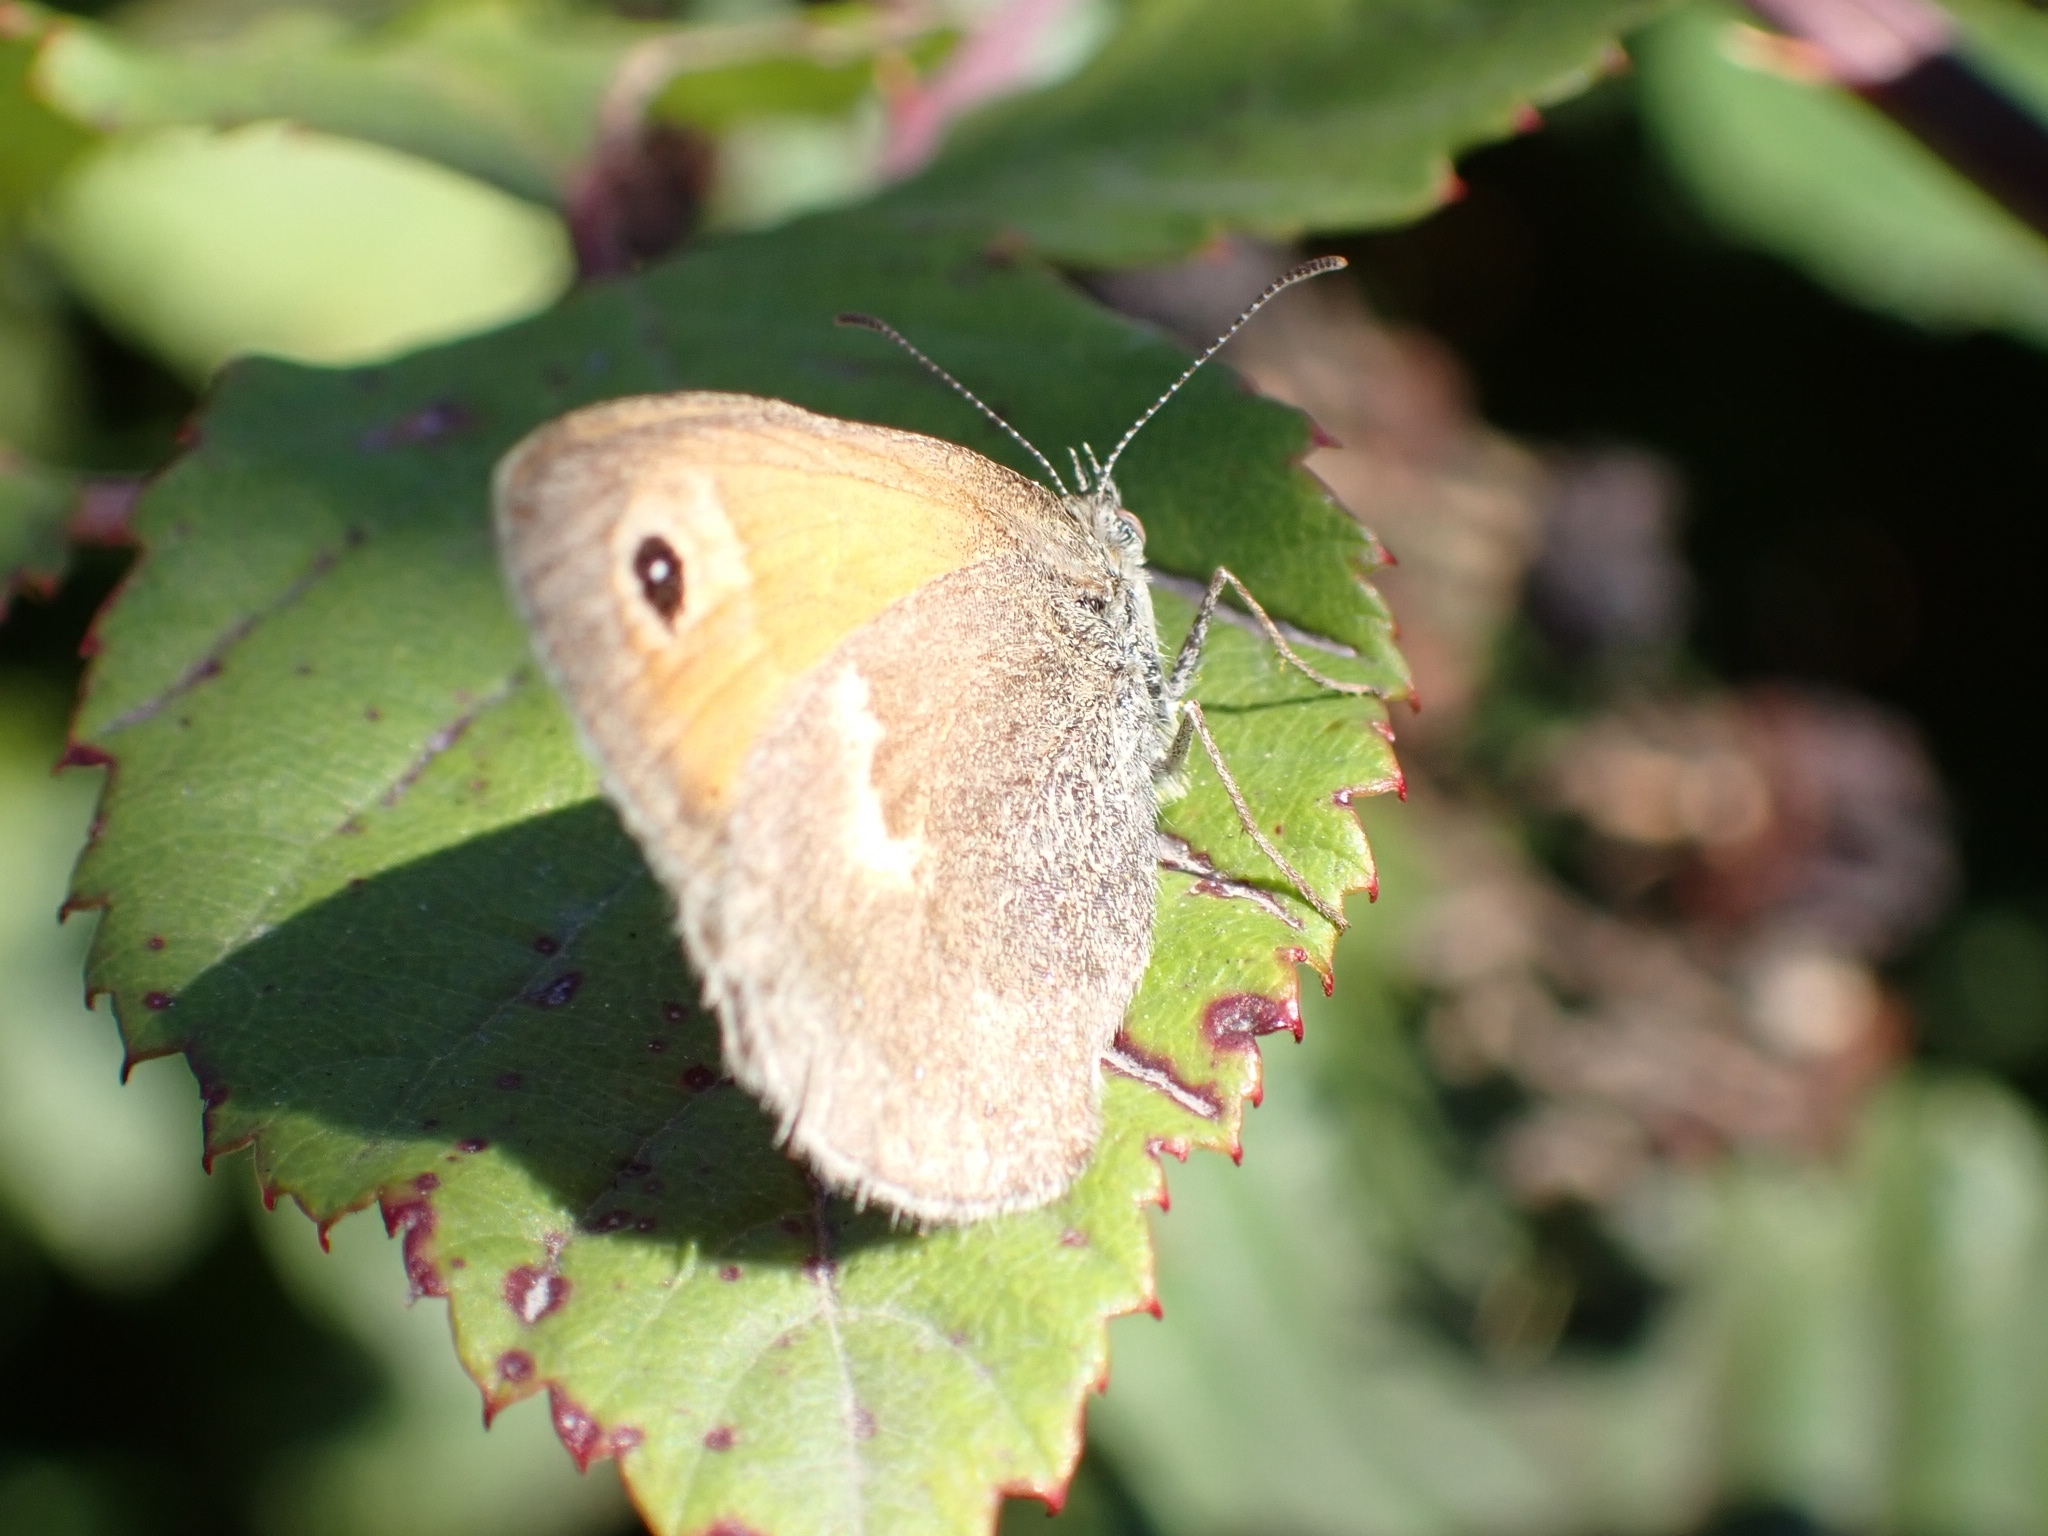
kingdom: Animalia
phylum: Arthropoda
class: Insecta
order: Lepidoptera
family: Nymphalidae
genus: Coenonympha
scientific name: Coenonympha pamphilus
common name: Small heath
